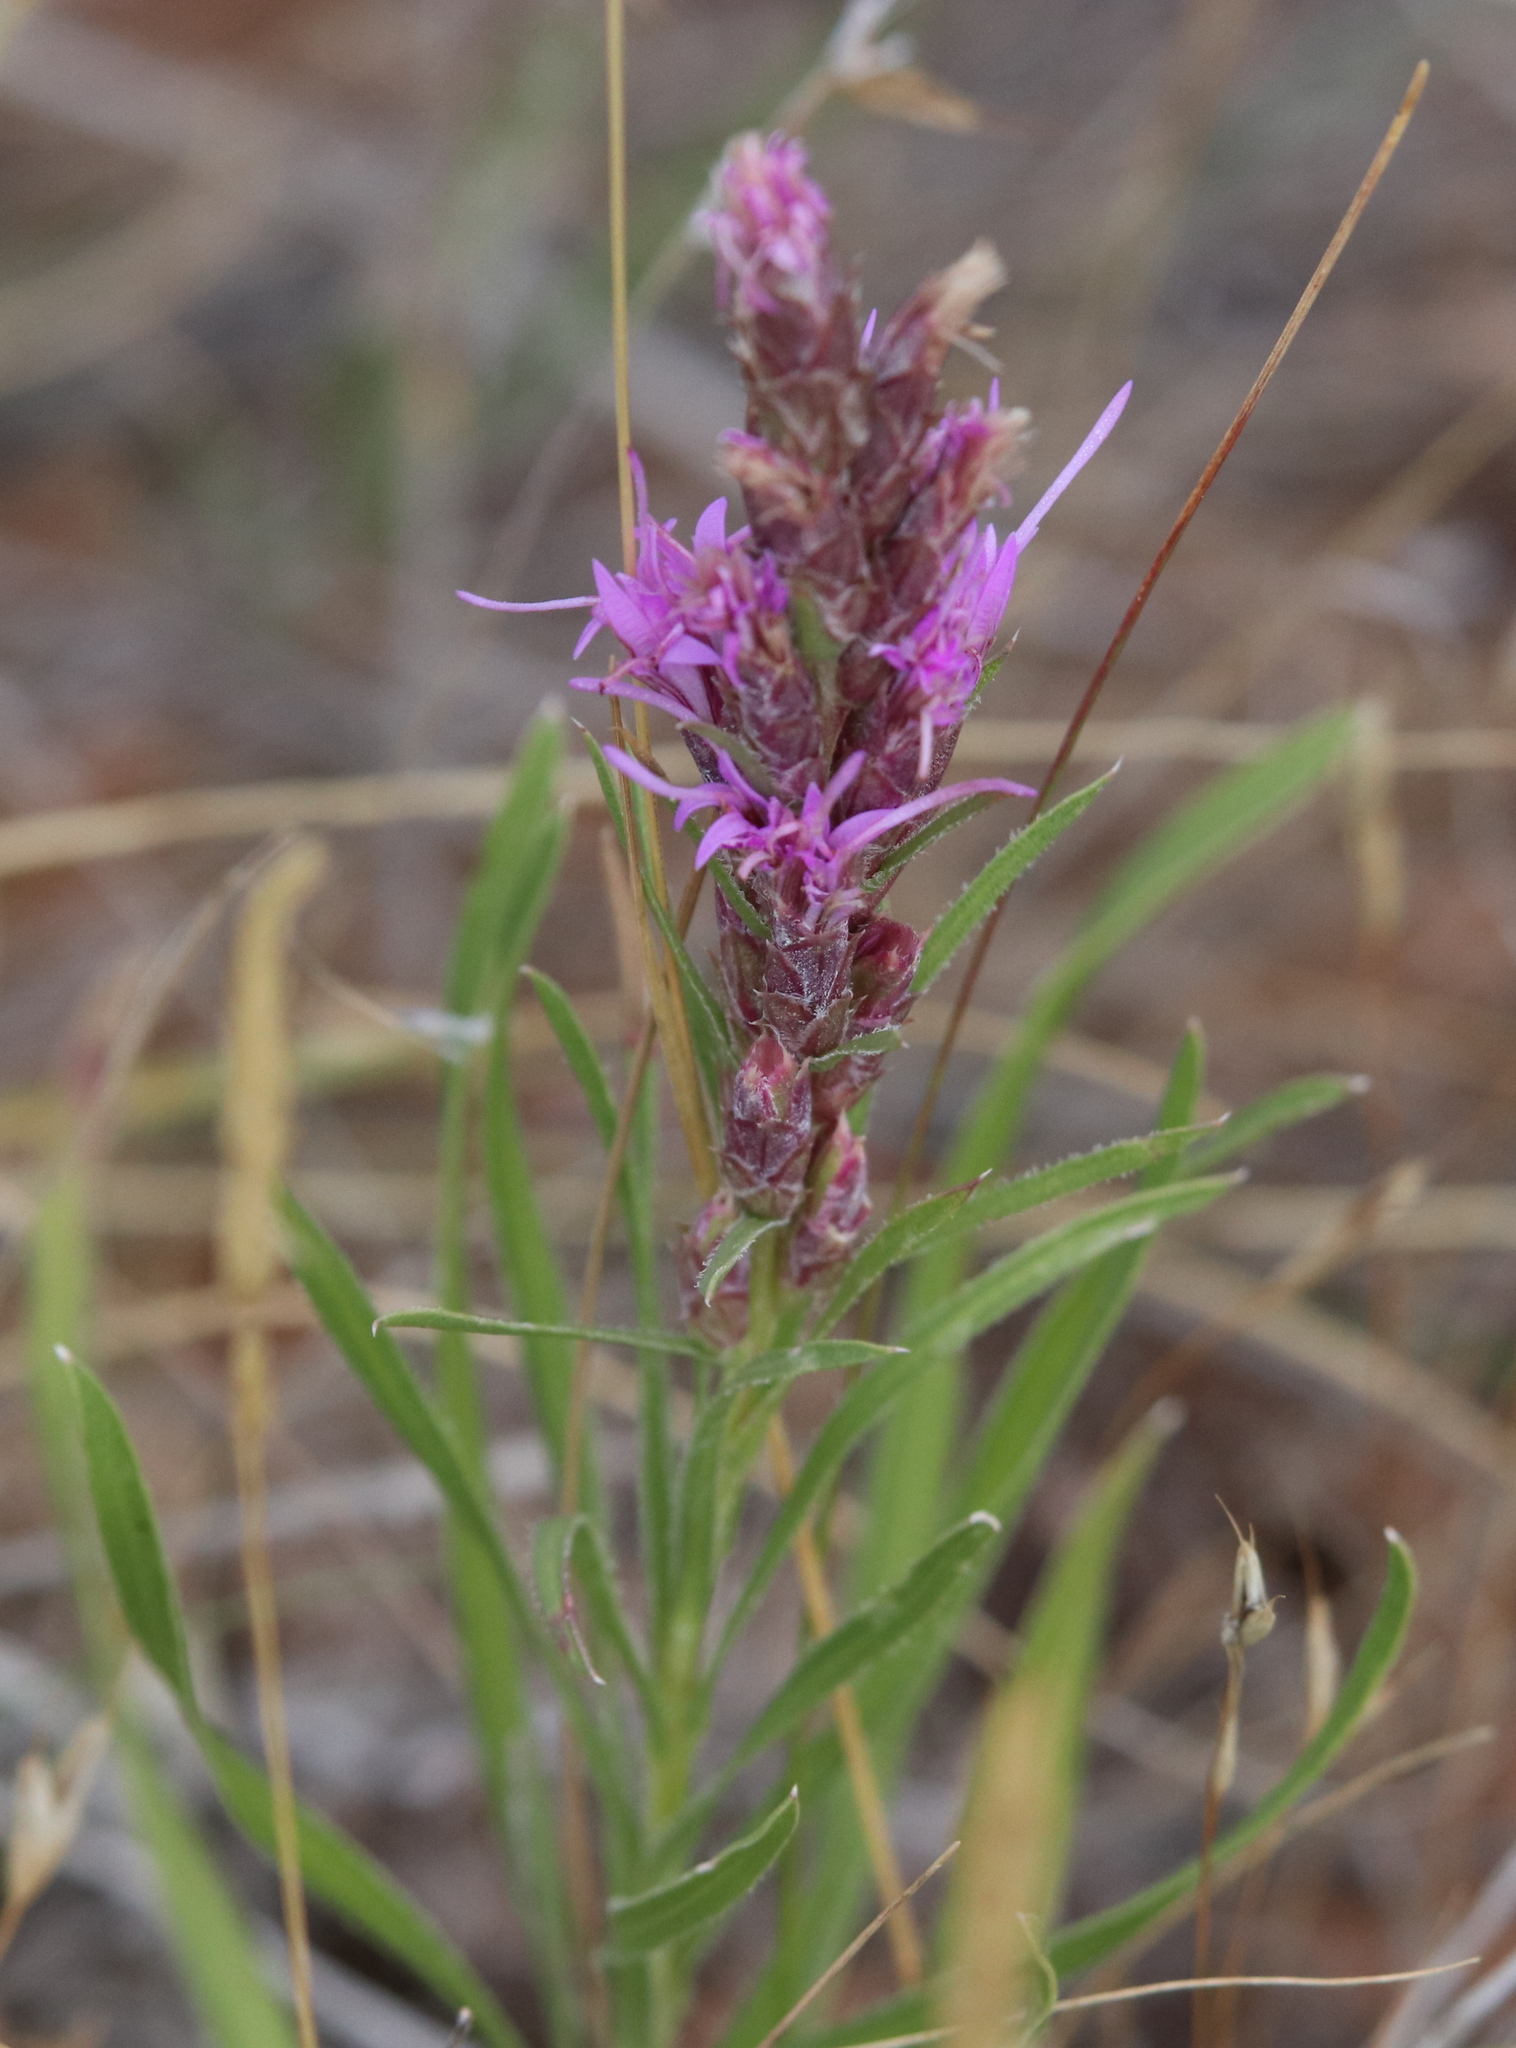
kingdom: Plantae
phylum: Tracheophyta
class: Magnoliopsida
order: Asterales
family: Asteraceae
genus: Liatris
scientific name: Liatris punctata
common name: Dotted gayfeather
